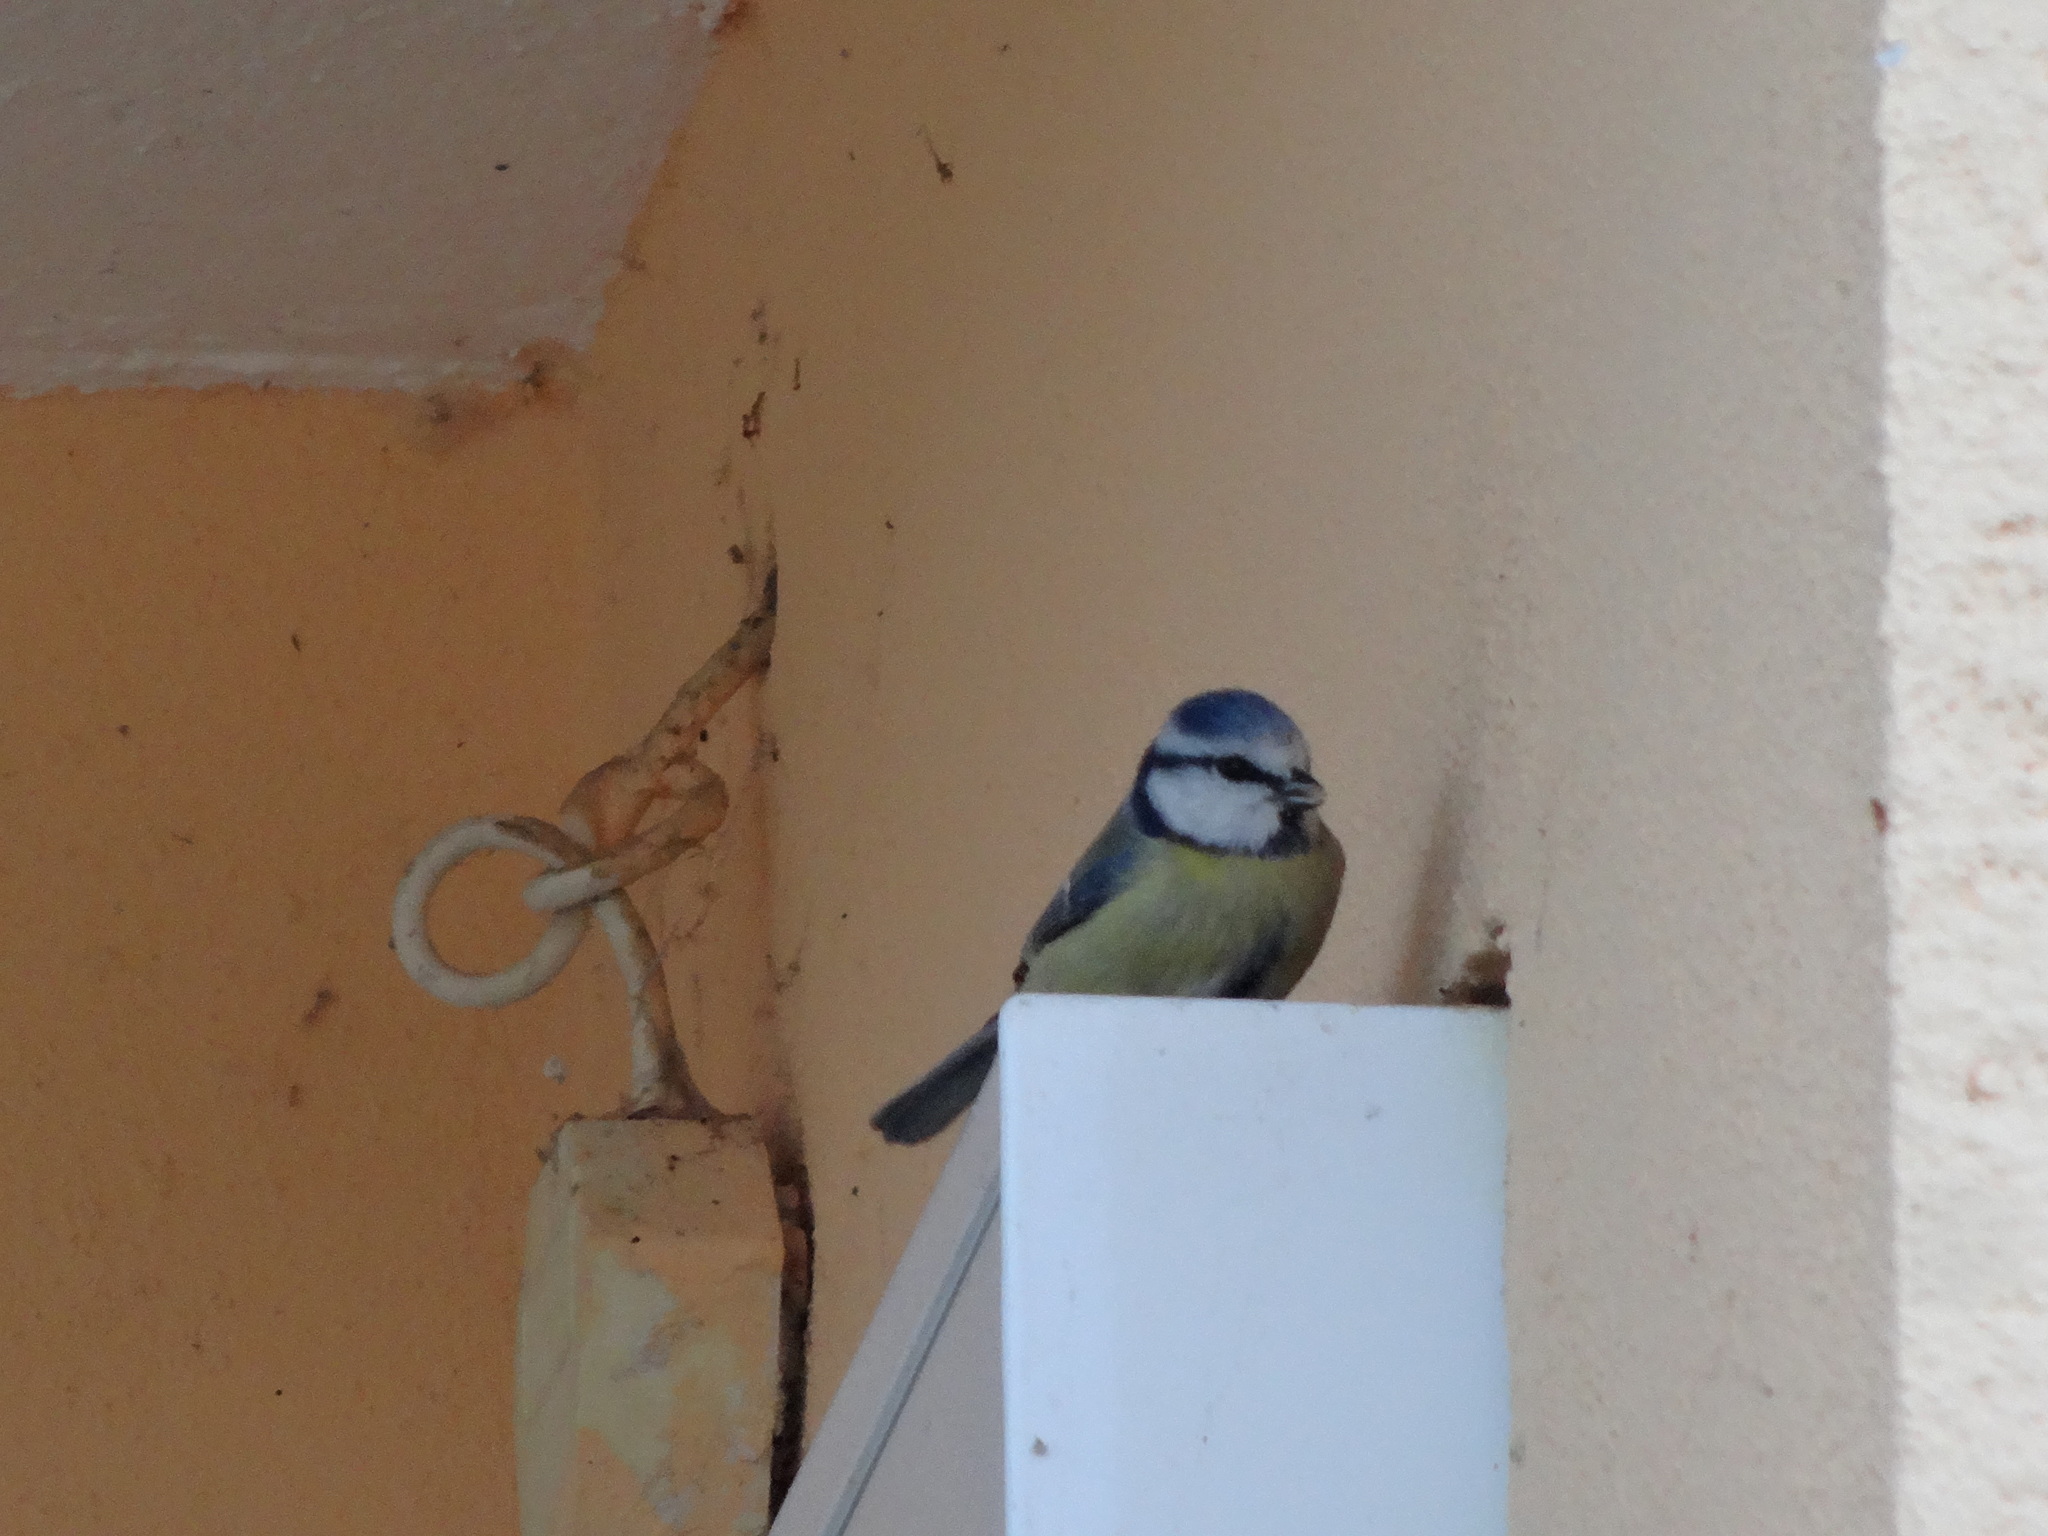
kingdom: Animalia
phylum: Chordata
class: Aves
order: Passeriformes
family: Paridae
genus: Cyanistes
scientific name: Cyanistes caeruleus
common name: Eurasian blue tit
